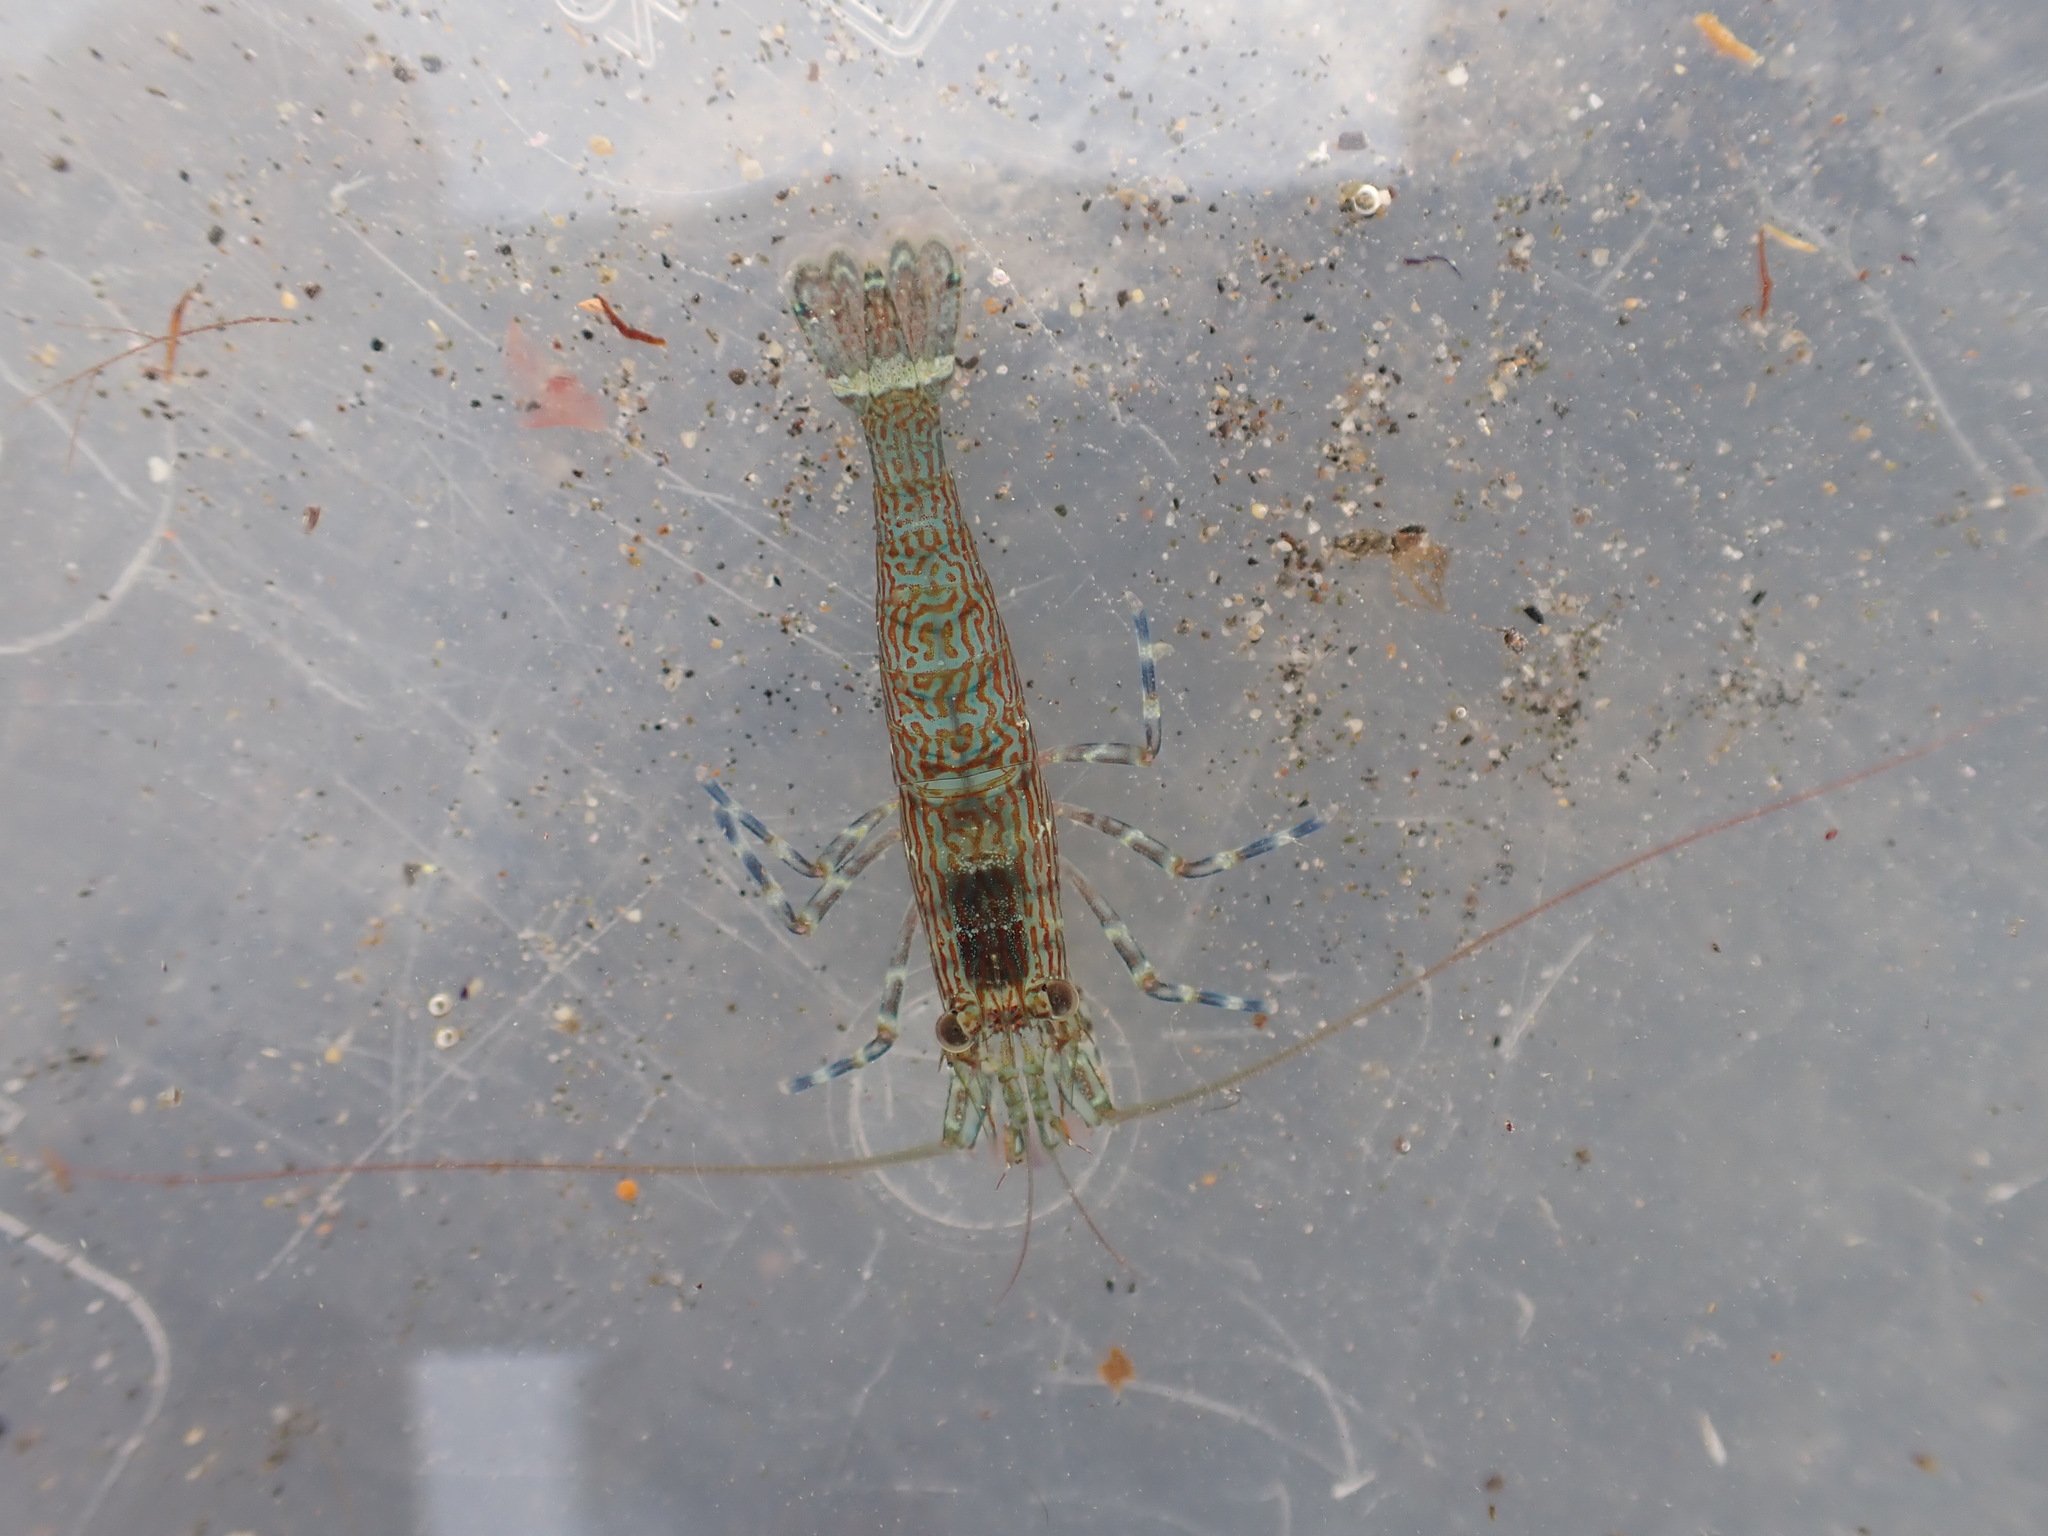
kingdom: Animalia
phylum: Arthropoda
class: Malacostraca
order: Decapoda
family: Hippolytidae
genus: Alope
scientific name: Alope spinifrons
